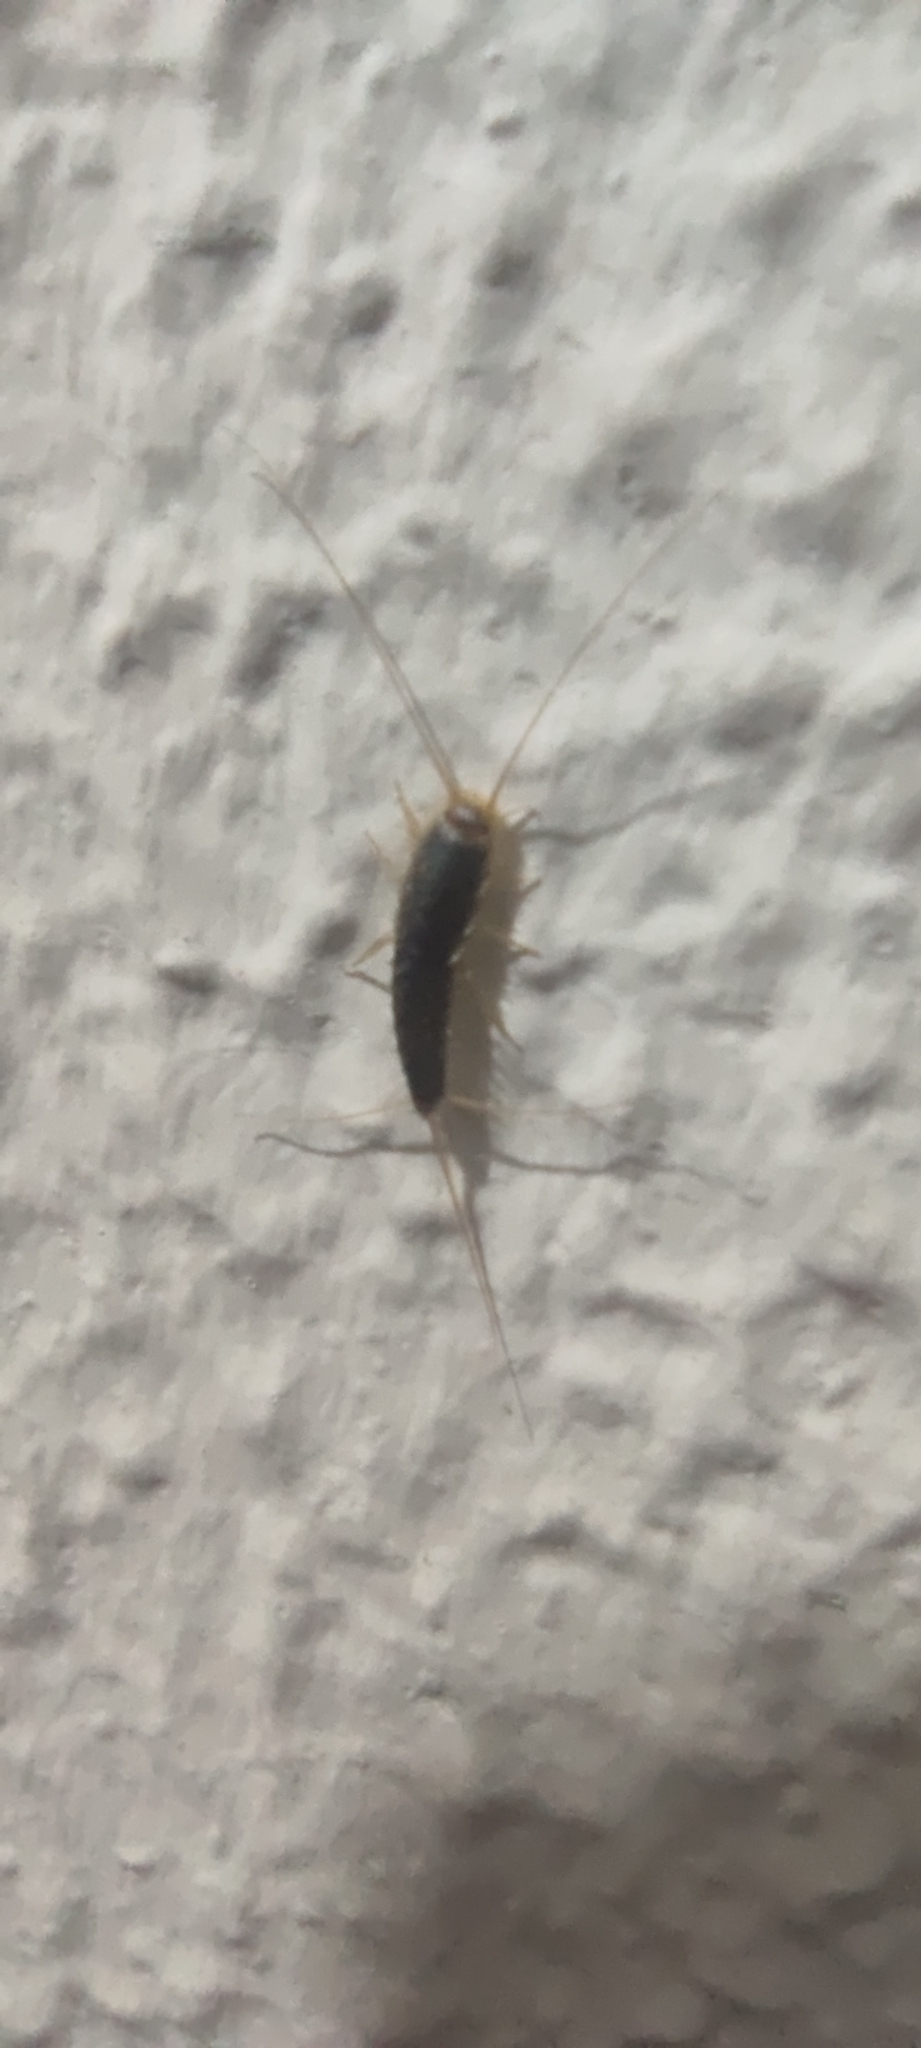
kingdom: Animalia
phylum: Arthropoda
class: Insecta
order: Zygentoma
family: Lepismatidae
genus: Ctenolepisma
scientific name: Ctenolepisma longicaudatum
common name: Silverfish
